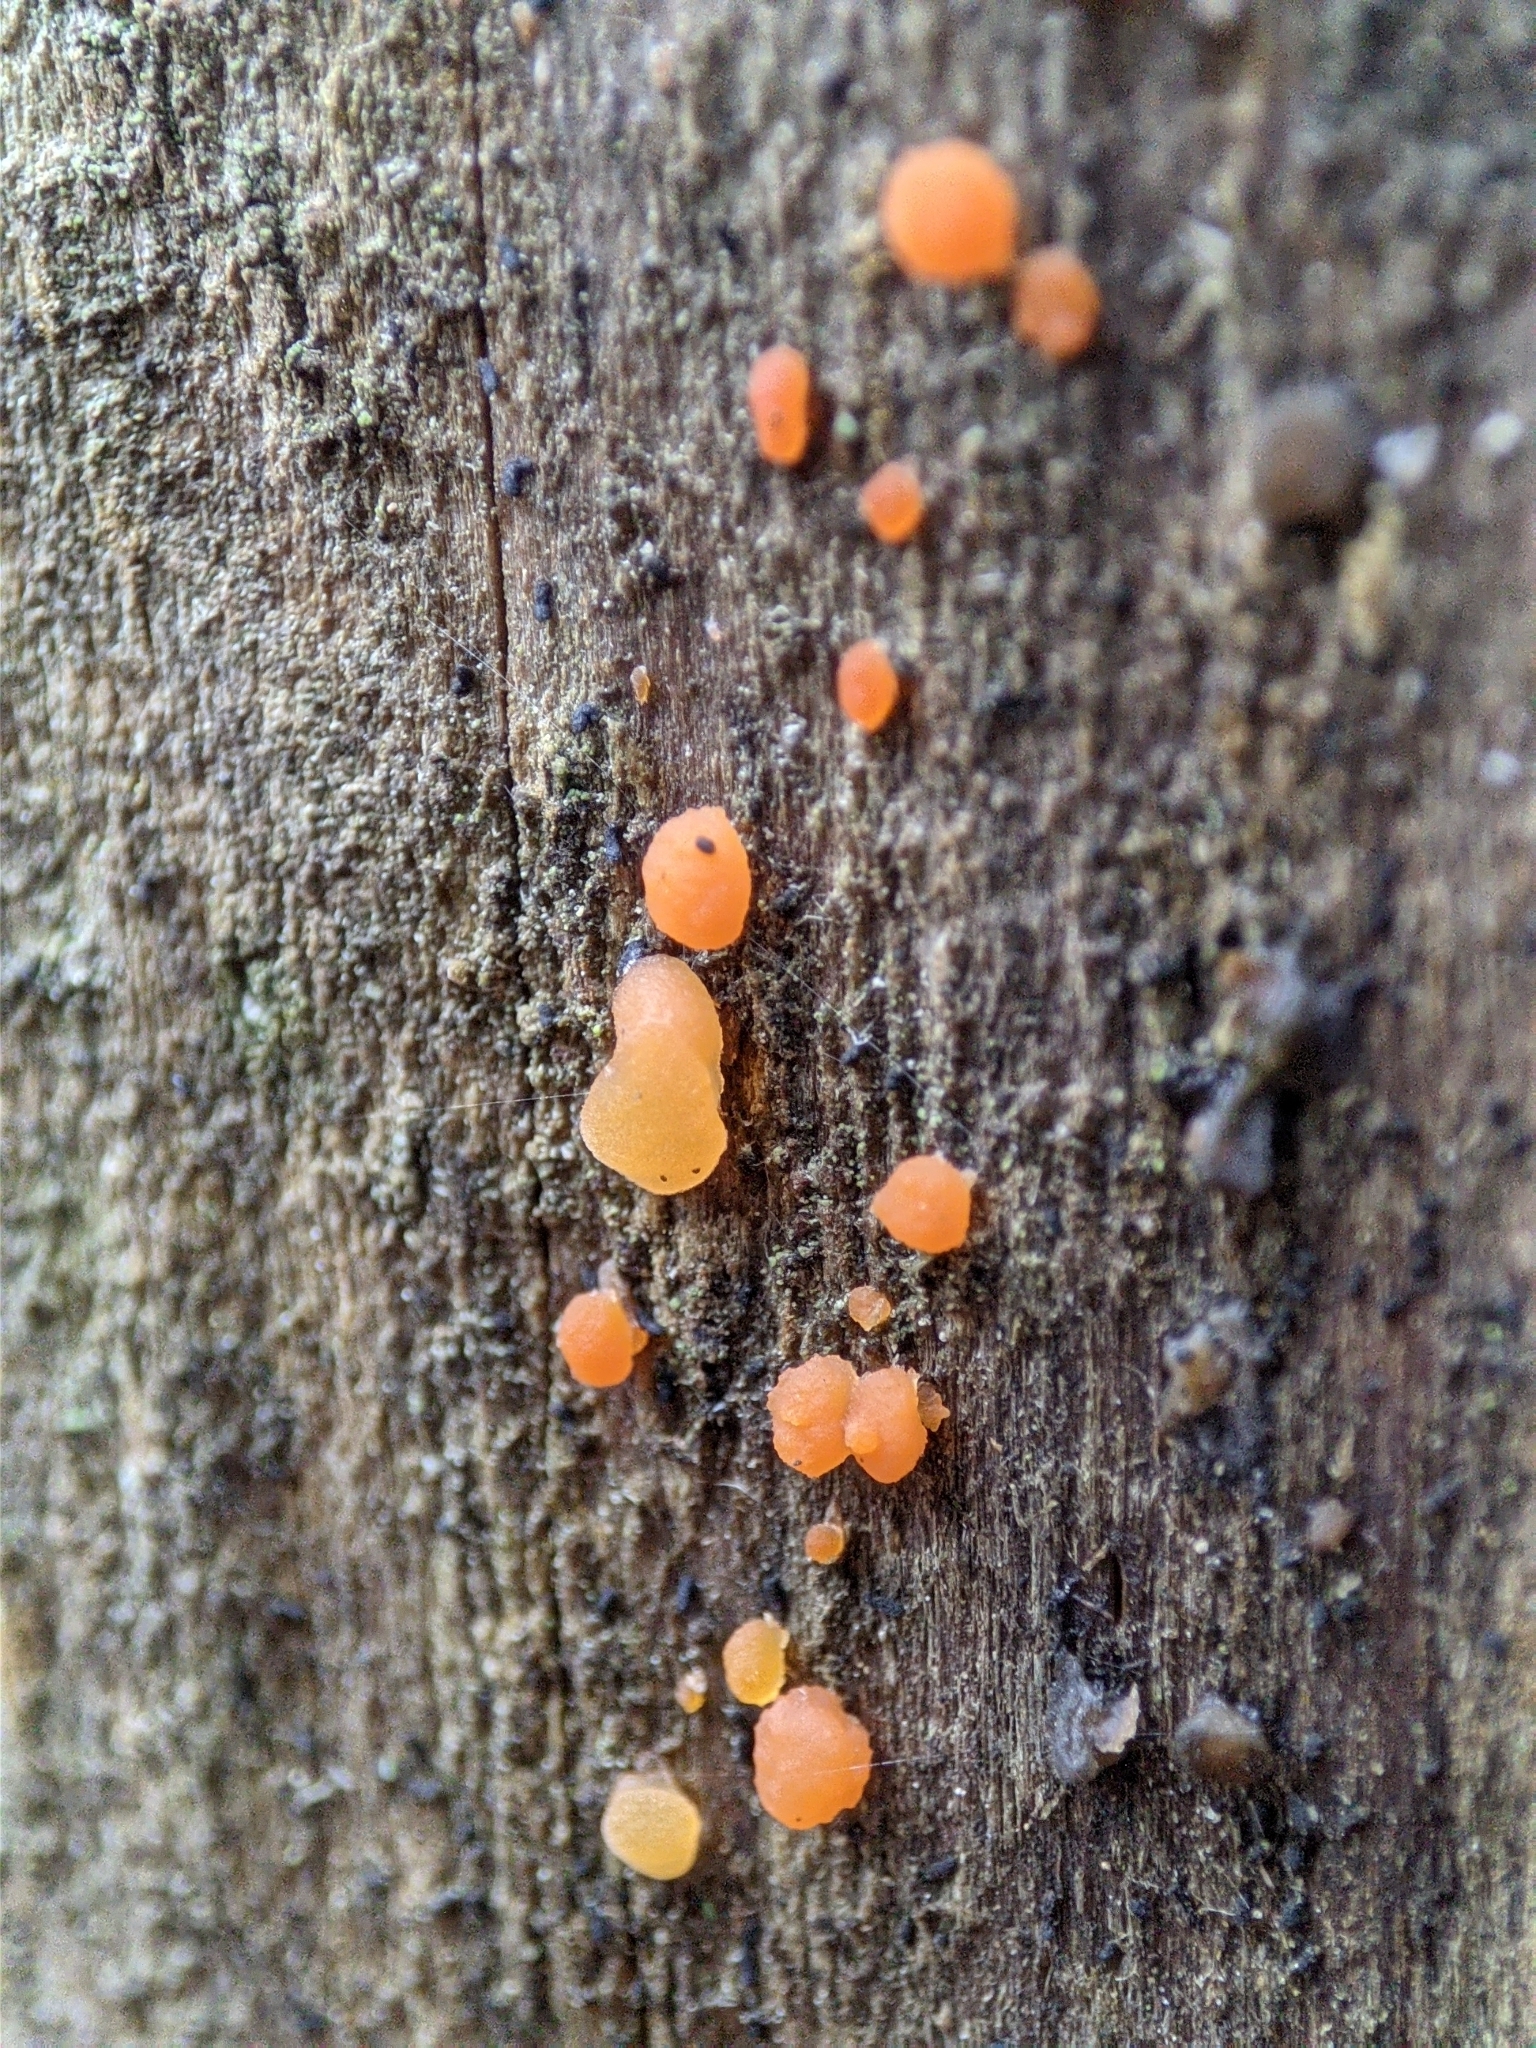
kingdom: Fungi
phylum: Basidiomycota
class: Dacrymycetes
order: Dacrymycetales
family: Dacrymycetaceae
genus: Dacrymyces
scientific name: Dacrymyces stillatus
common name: Common jelly spot
